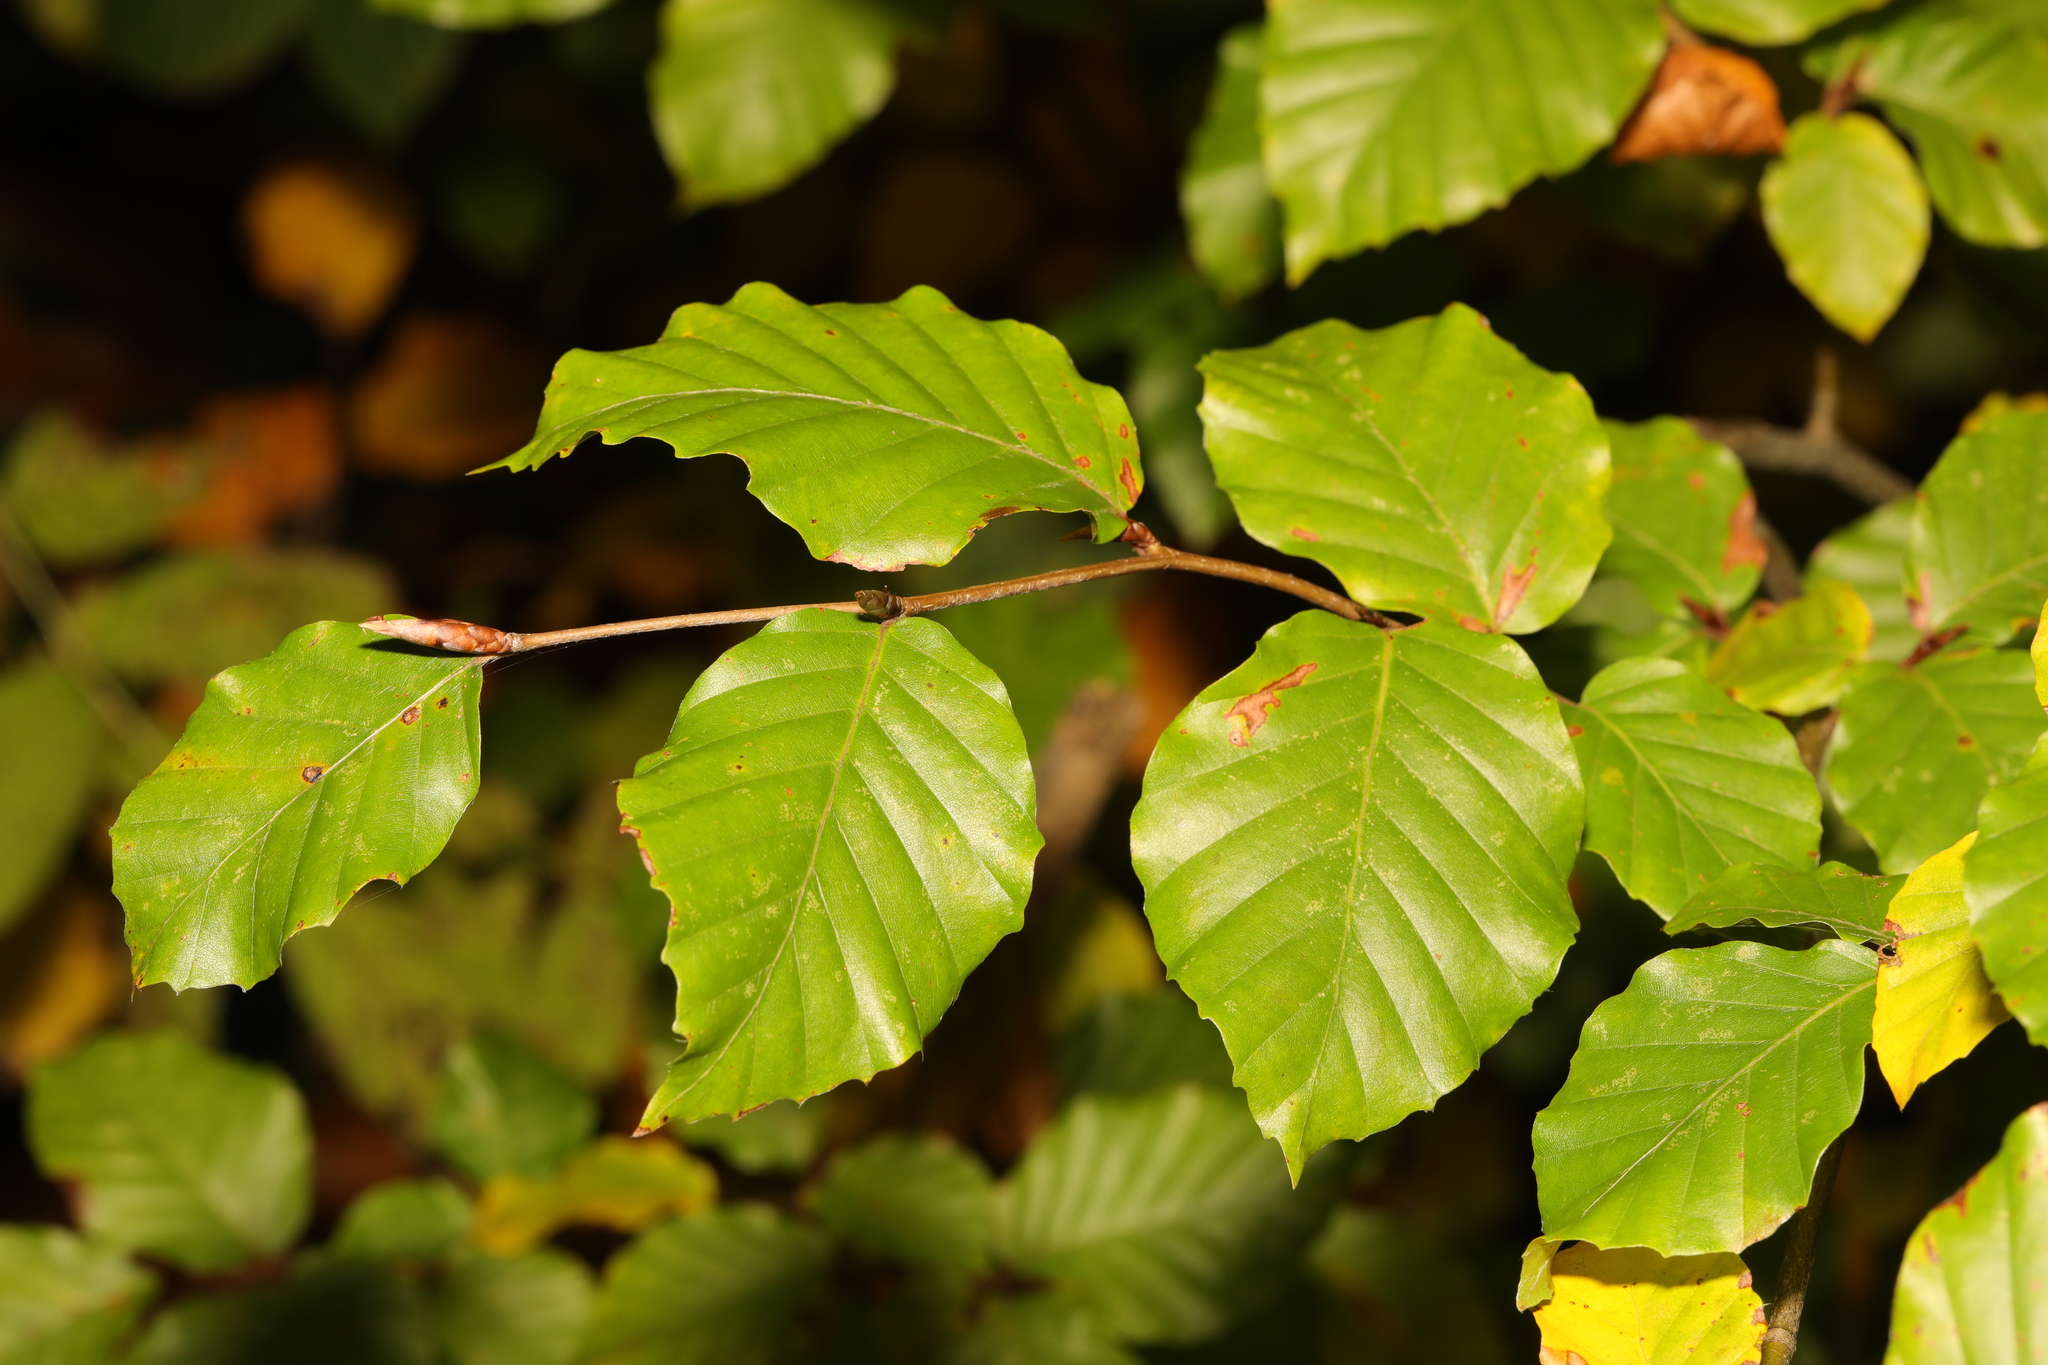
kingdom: Plantae
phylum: Tracheophyta
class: Magnoliopsida
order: Fagales
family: Fagaceae
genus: Fagus
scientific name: Fagus sylvatica
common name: Beech
